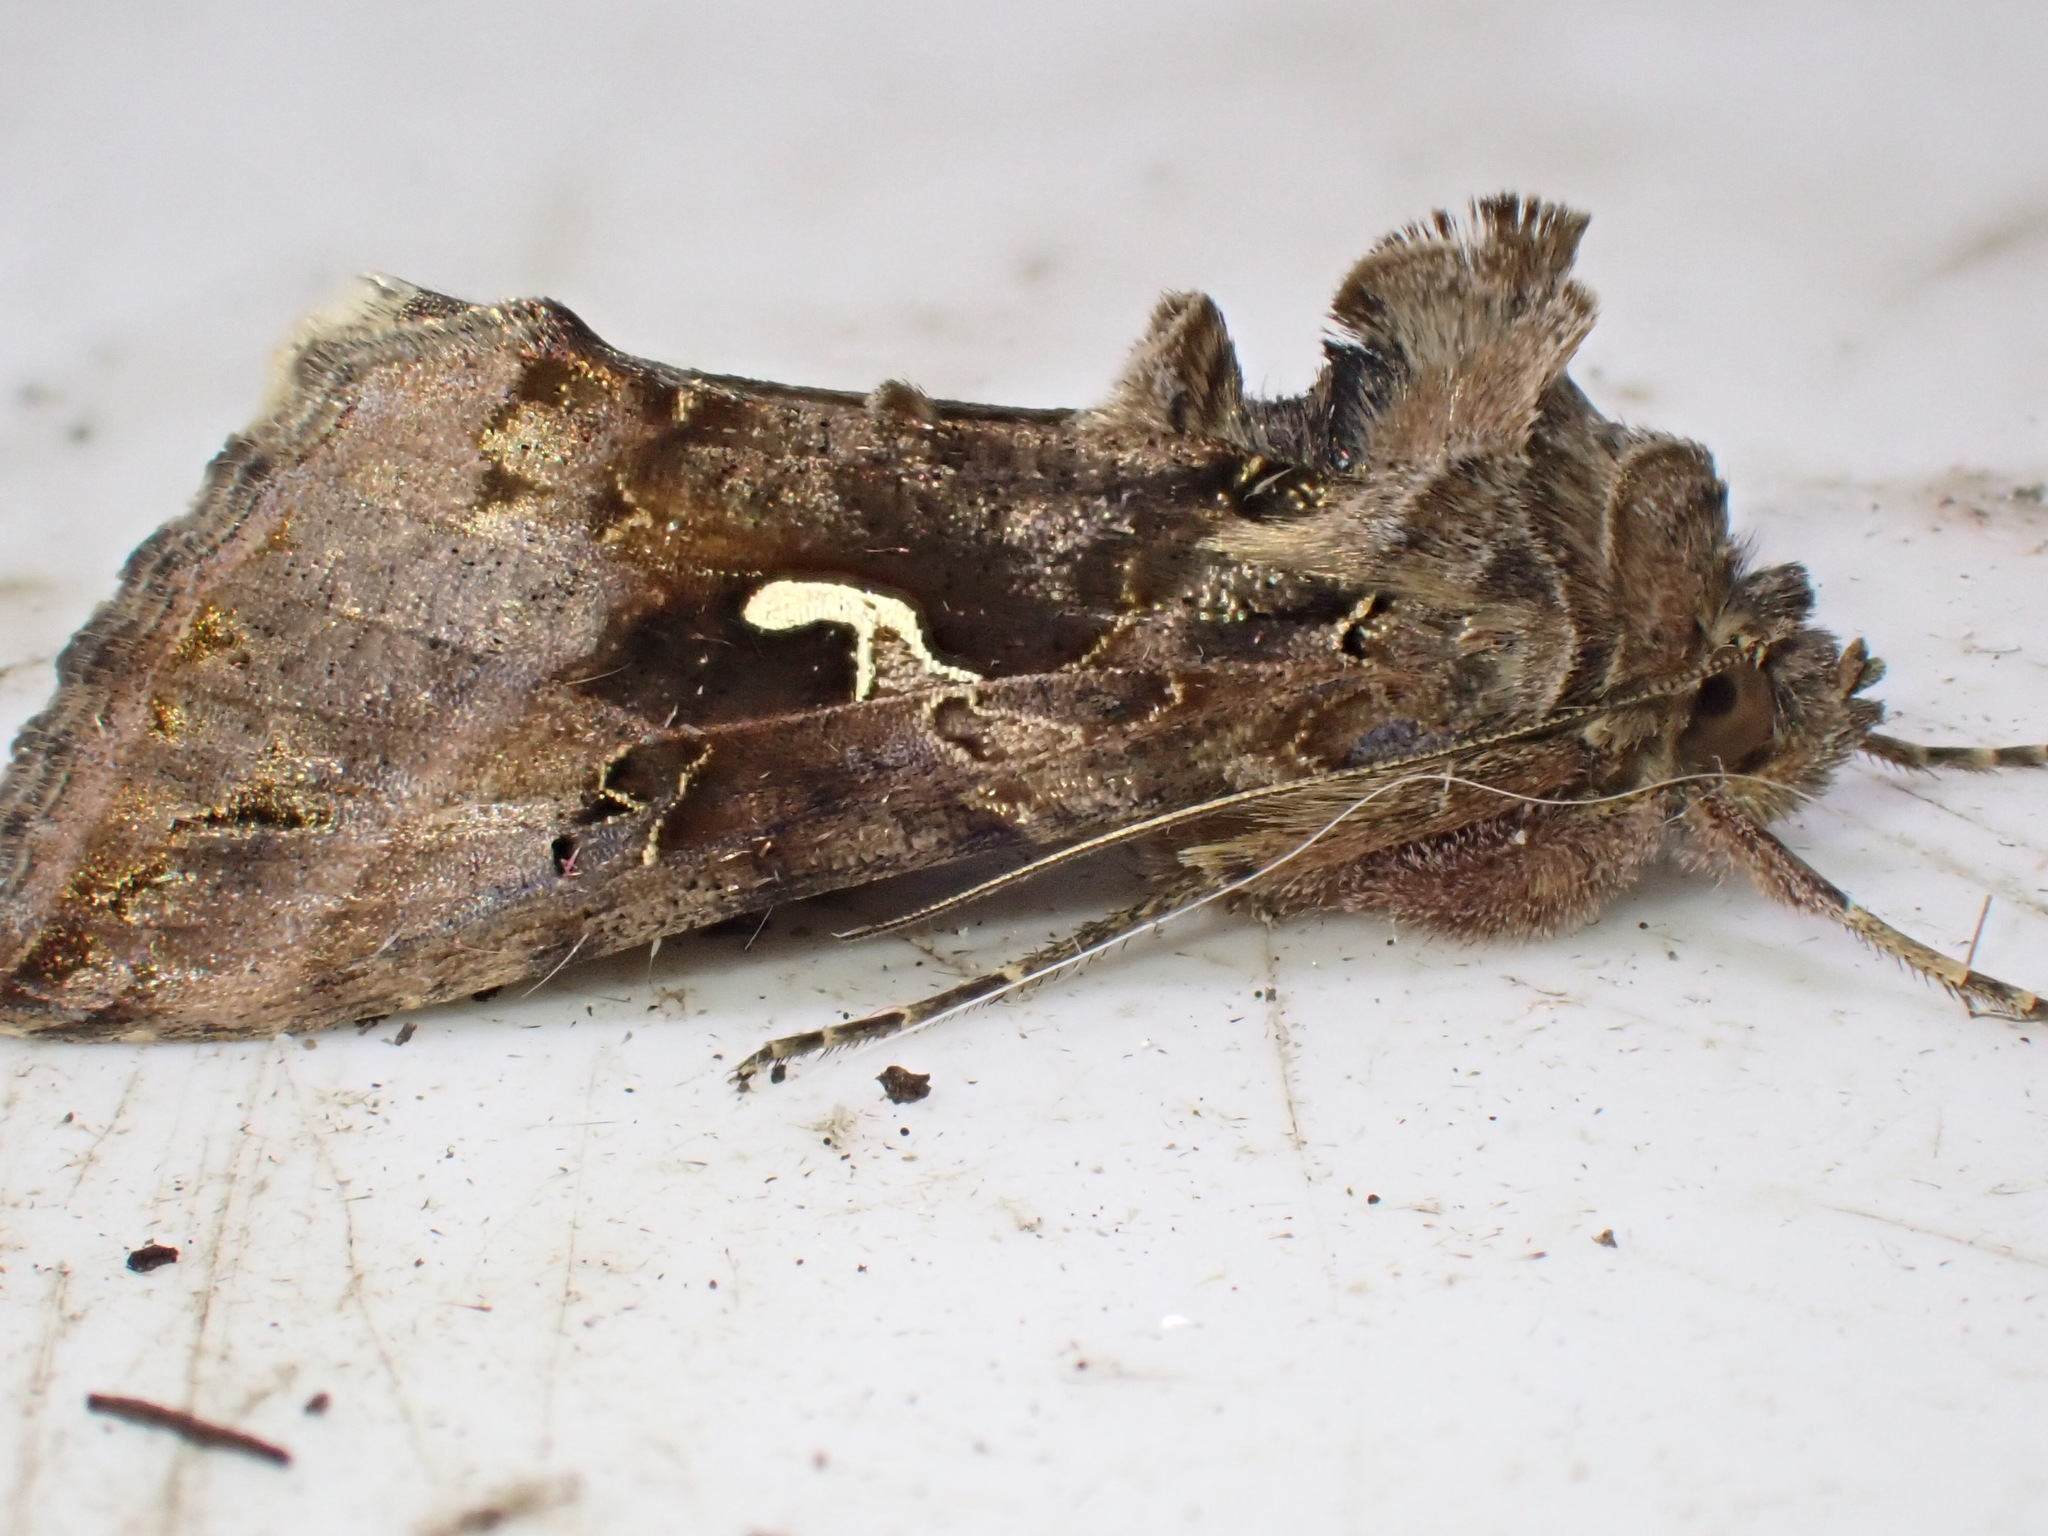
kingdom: Animalia
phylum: Arthropoda
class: Insecta
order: Lepidoptera
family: Noctuidae
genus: Autographa
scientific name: Autographa gamma
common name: Silver y
